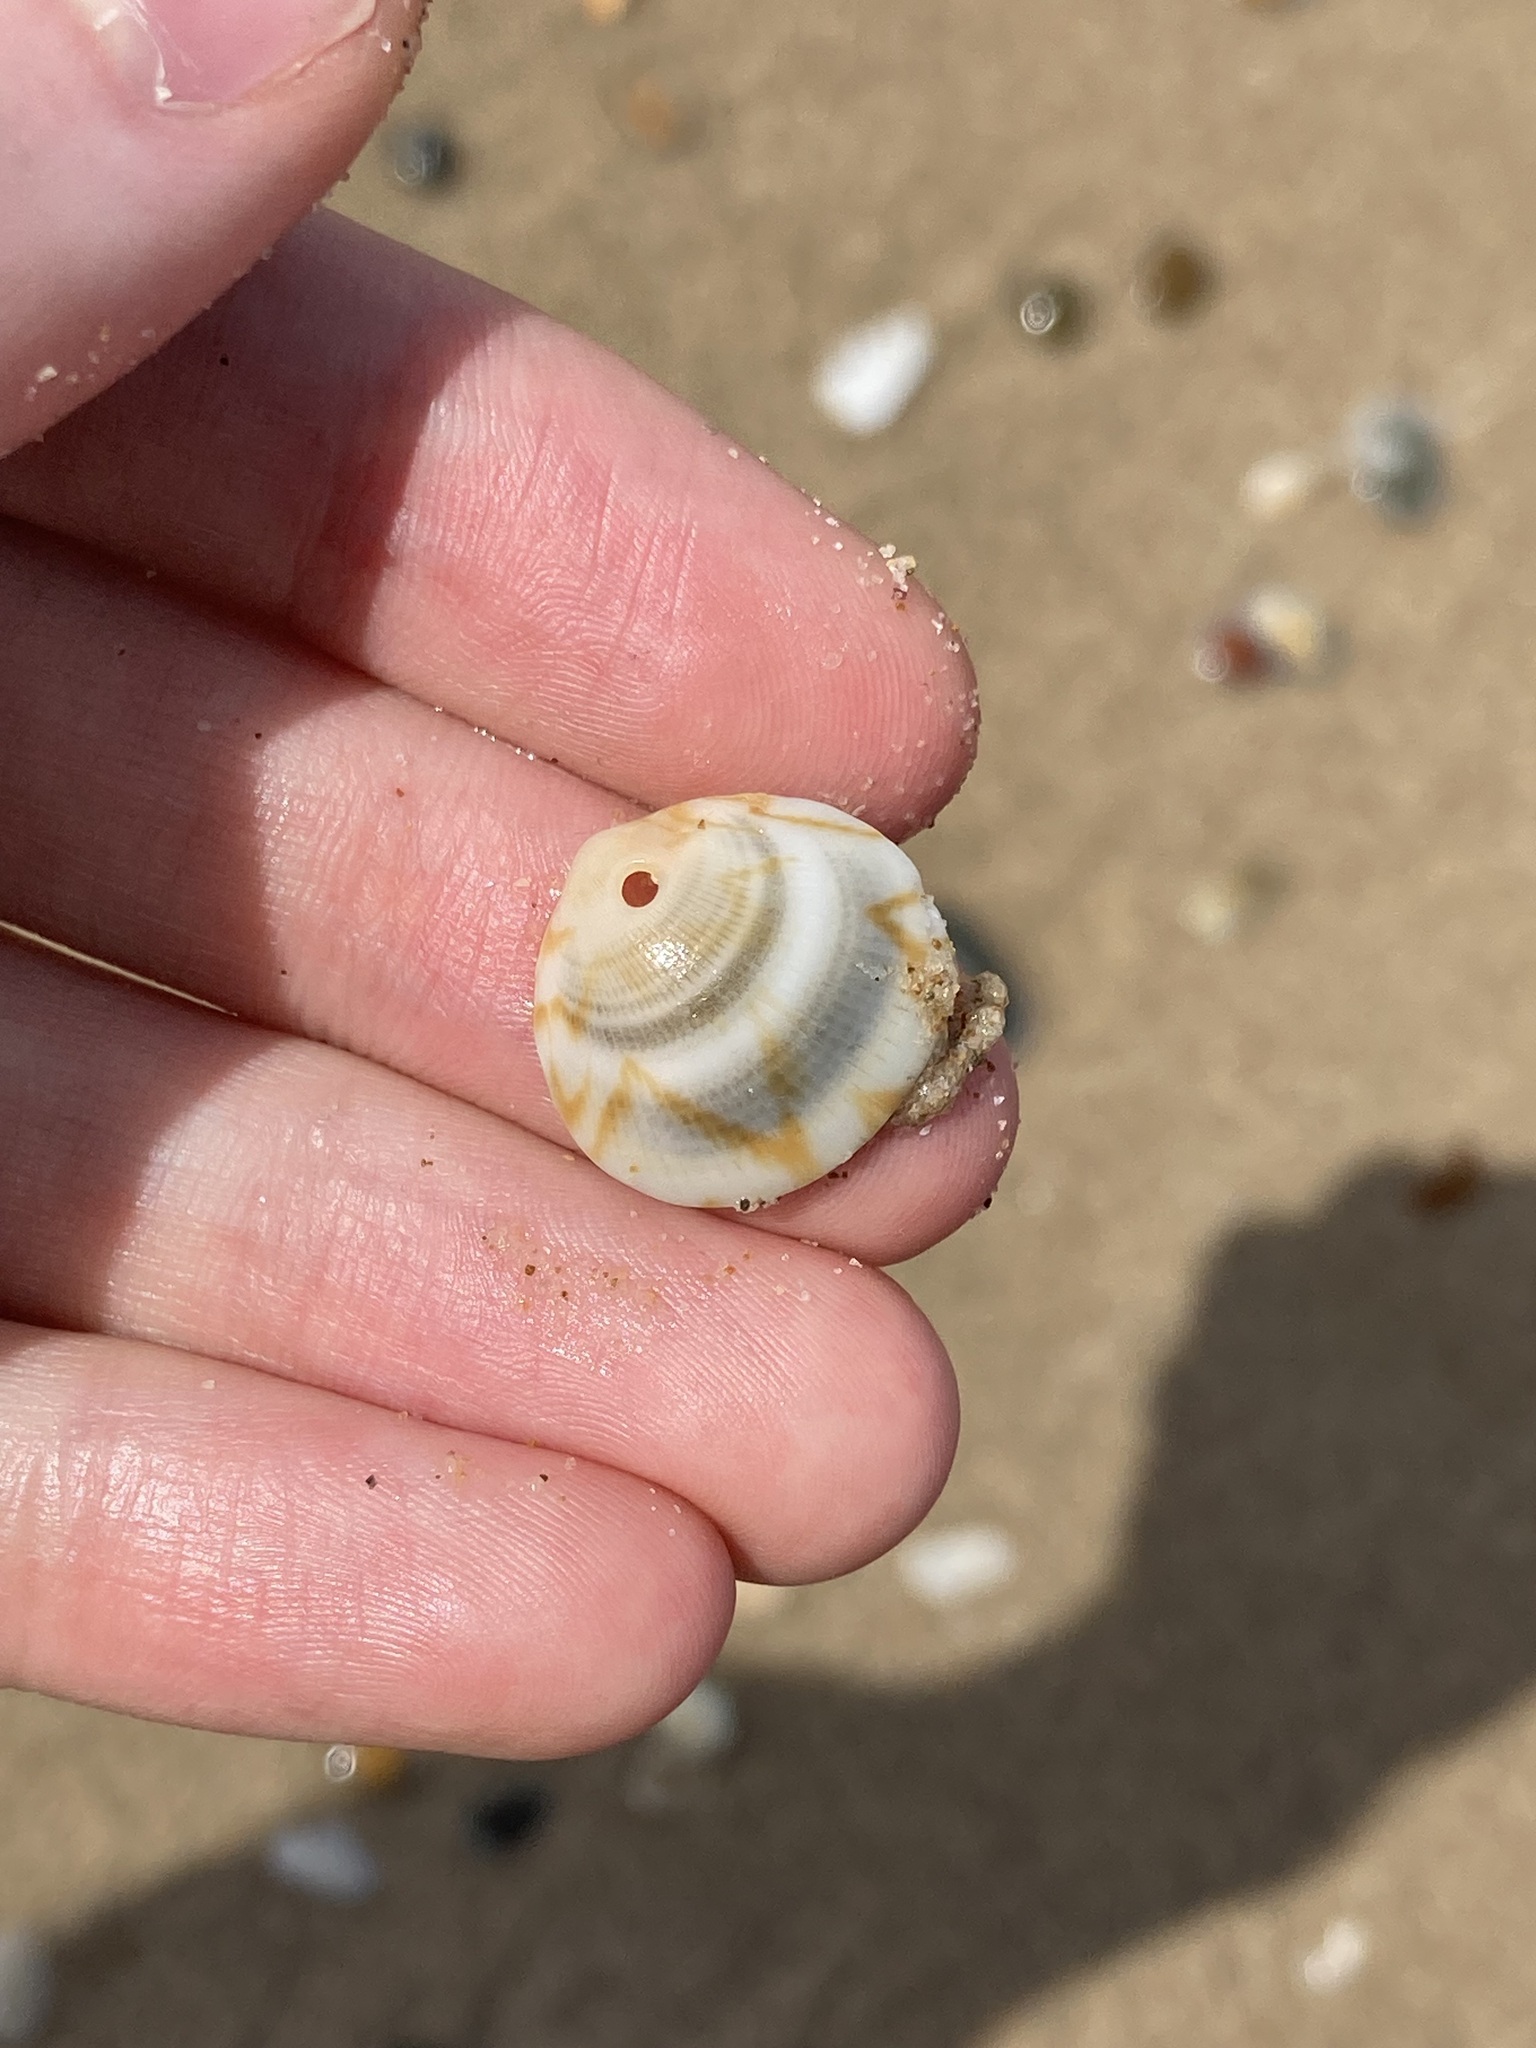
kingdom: Animalia
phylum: Mollusca
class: Bivalvia
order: Arcida
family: Glycymerididae
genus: Glycymeris
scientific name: Glycymeris grayana
